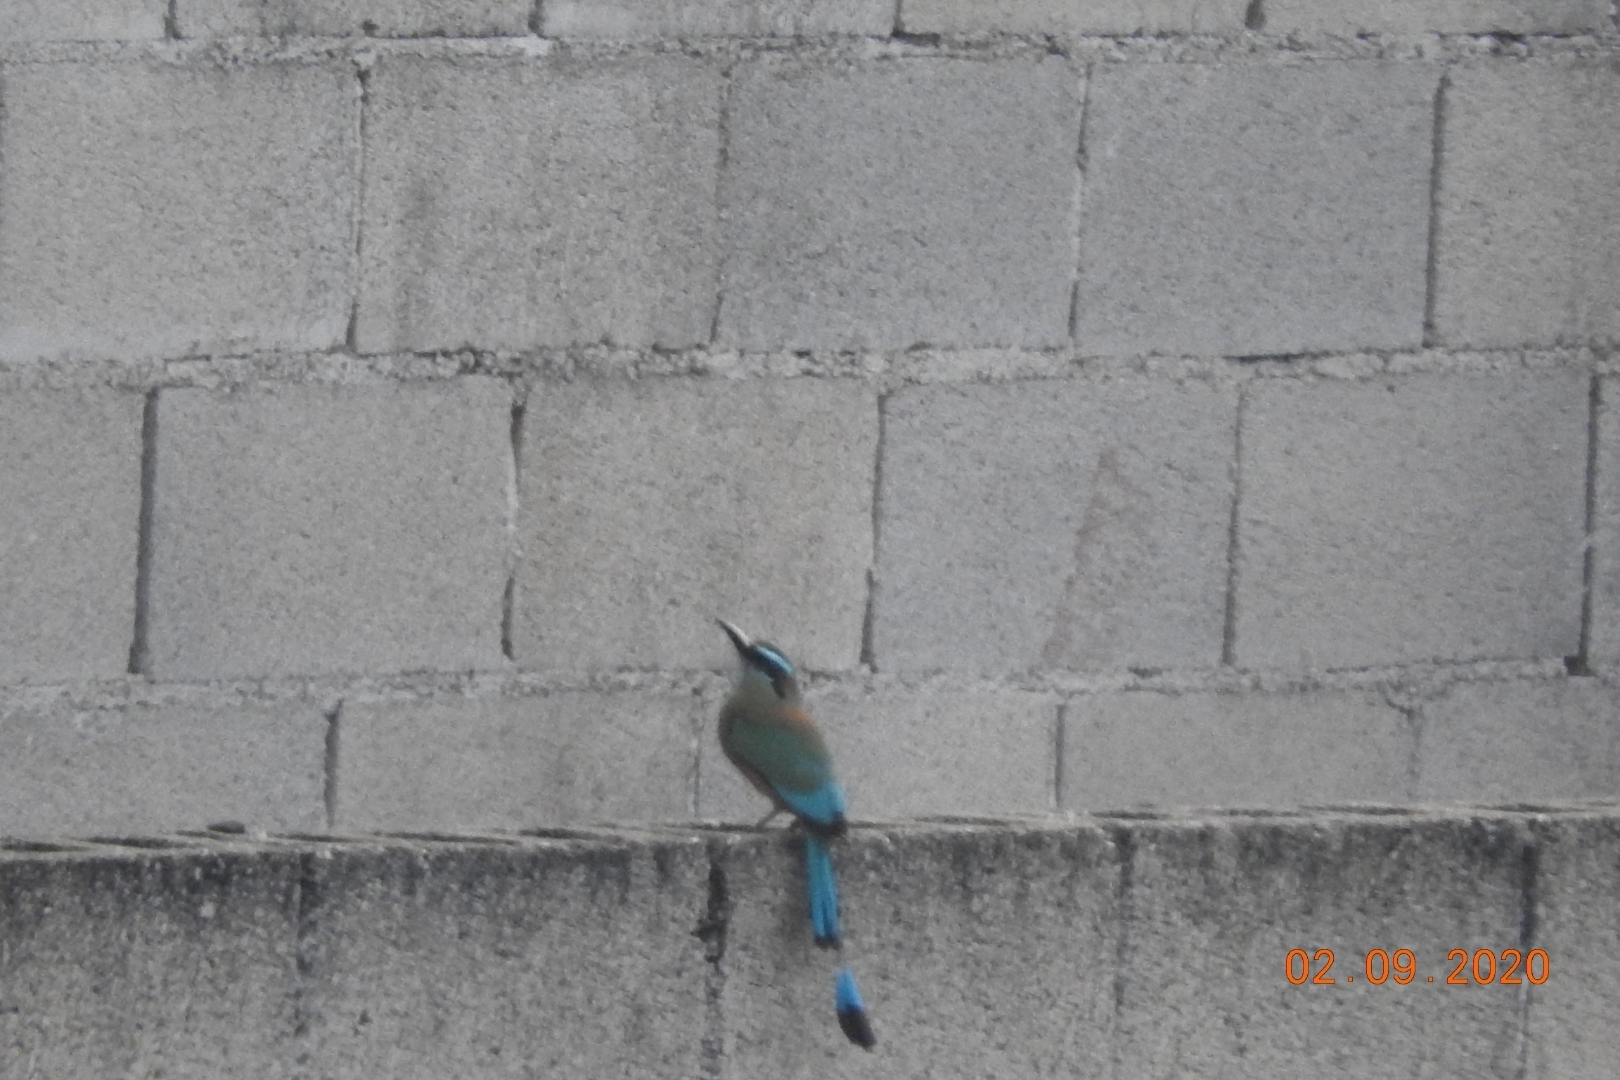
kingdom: Animalia
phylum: Chordata
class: Aves
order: Coraciiformes
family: Momotidae
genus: Eumomota
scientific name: Eumomota superciliosa
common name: Turquoise-browed motmot
